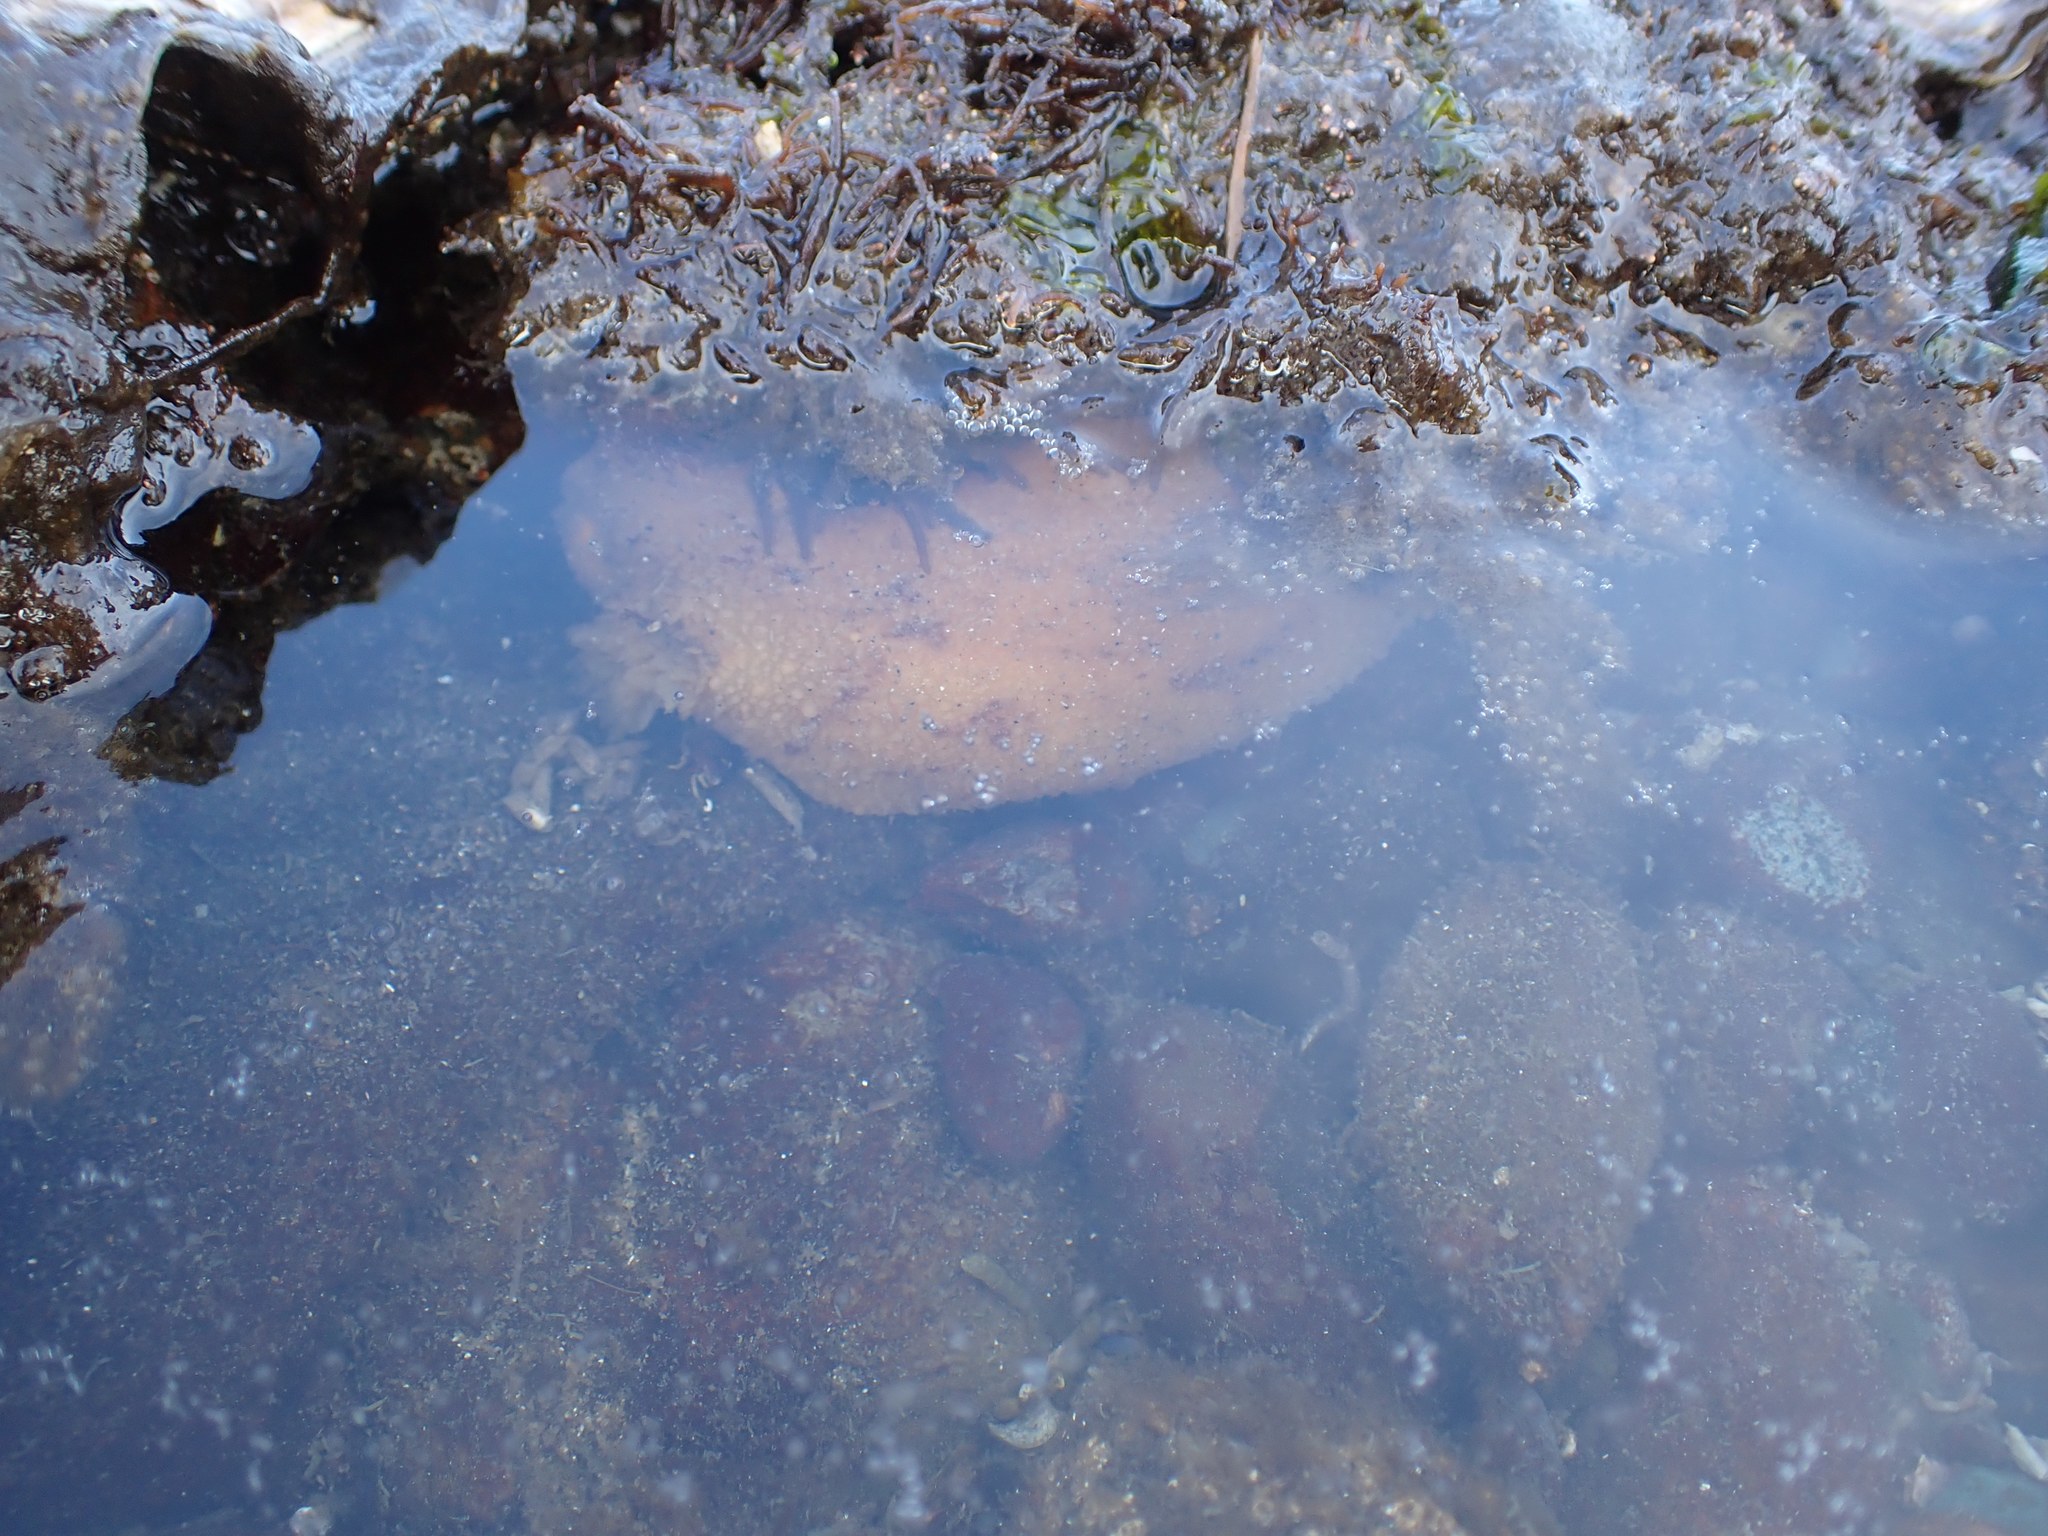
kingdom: Animalia
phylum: Mollusca
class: Gastropoda
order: Nudibranchia
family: Dorididae
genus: Doris
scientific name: Doris montereyensis
